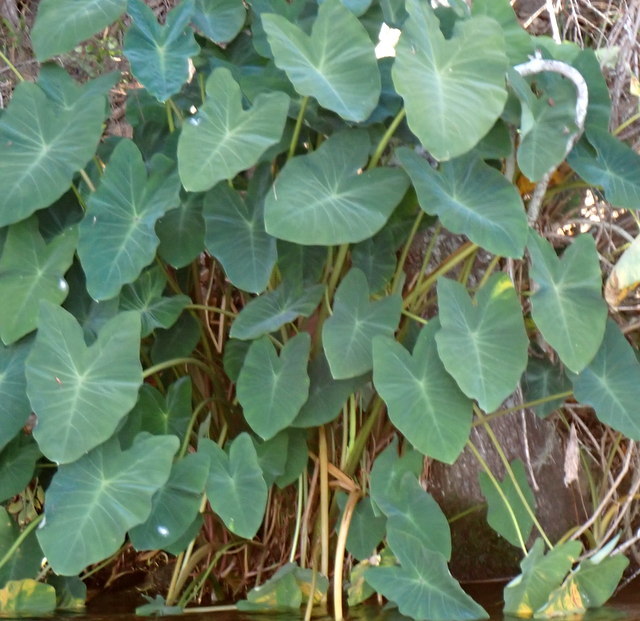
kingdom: Plantae
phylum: Tracheophyta
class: Liliopsida
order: Alismatales
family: Araceae
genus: Colocasia
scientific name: Colocasia esculenta
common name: Taro
